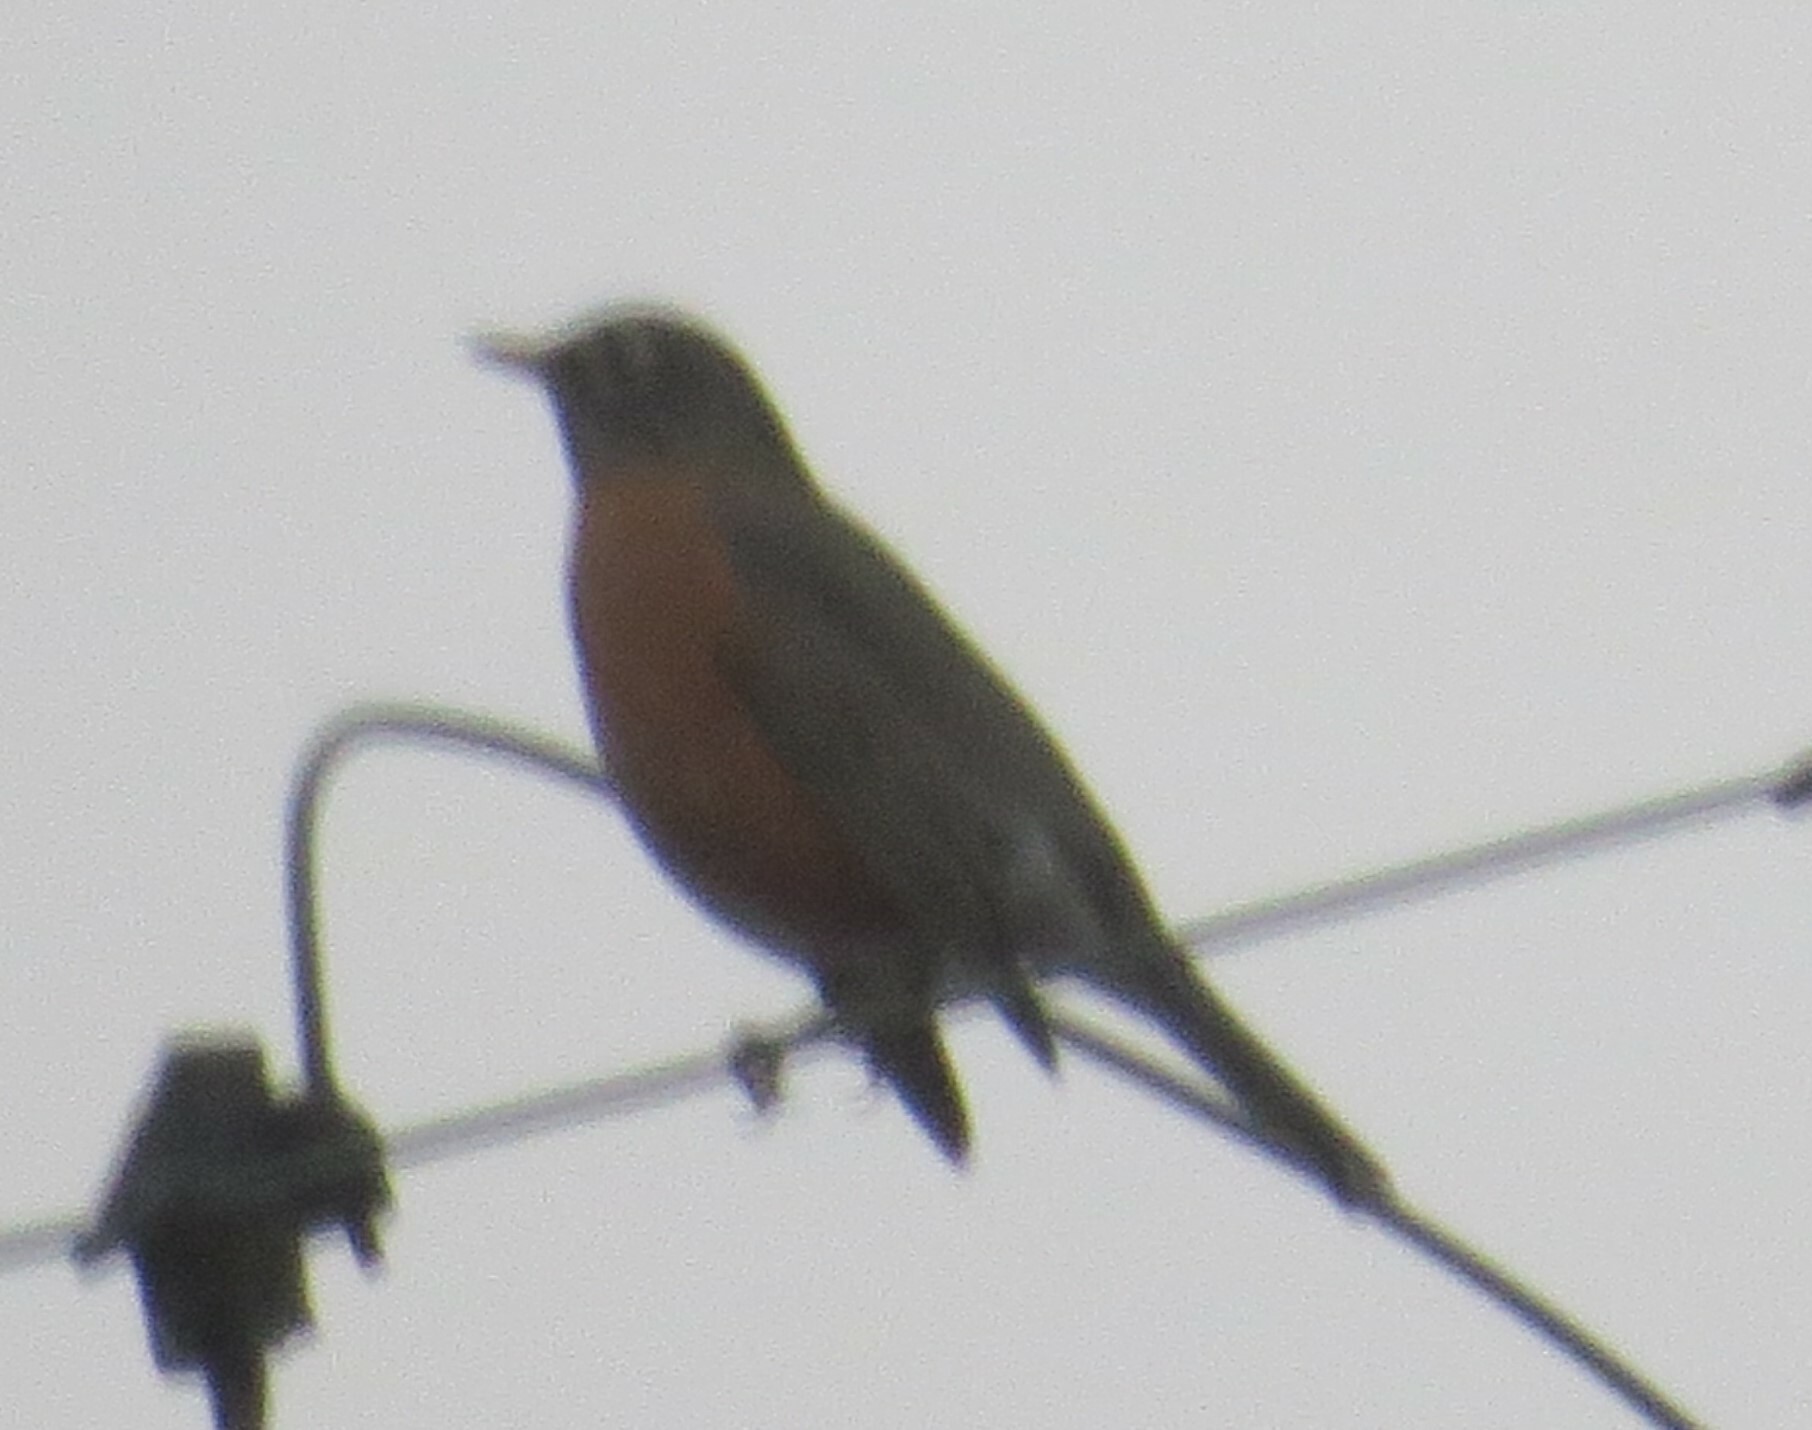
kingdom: Animalia
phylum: Chordata
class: Aves
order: Passeriformes
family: Turdidae
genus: Turdus
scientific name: Turdus migratorius
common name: American robin
